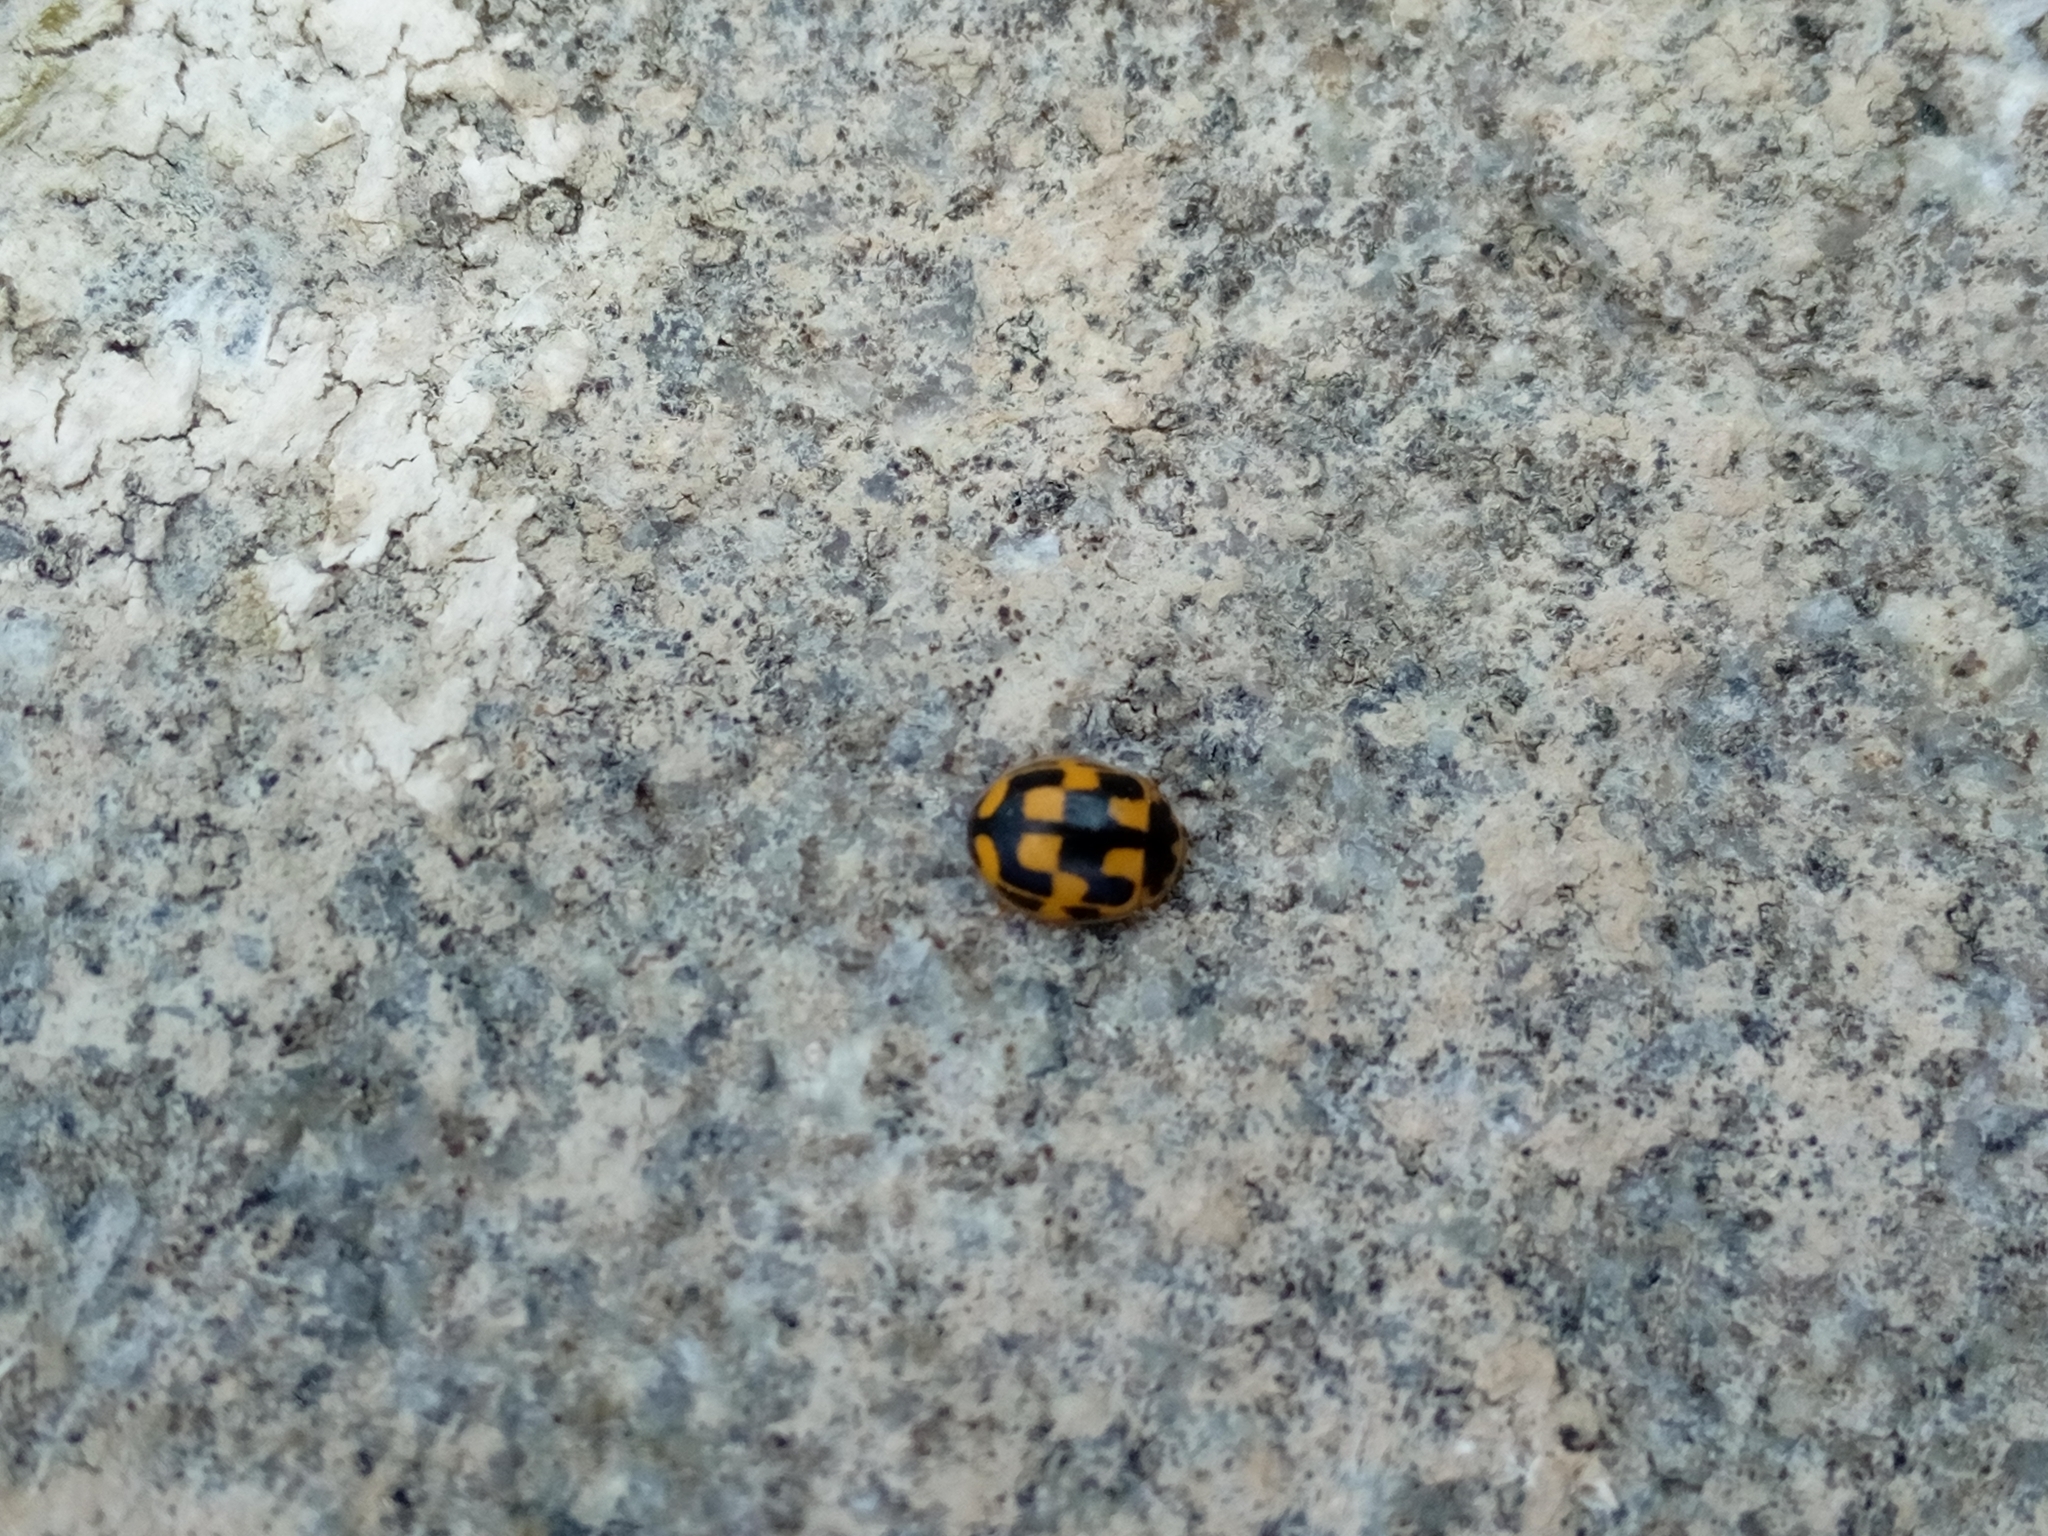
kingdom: Animalia
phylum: Arthropoda
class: Insecta
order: Coleoptera
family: Coccinellidae
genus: Propylaea
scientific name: Propylaea quatuordecimpunctata
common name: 14-spotted ladybird beetle
